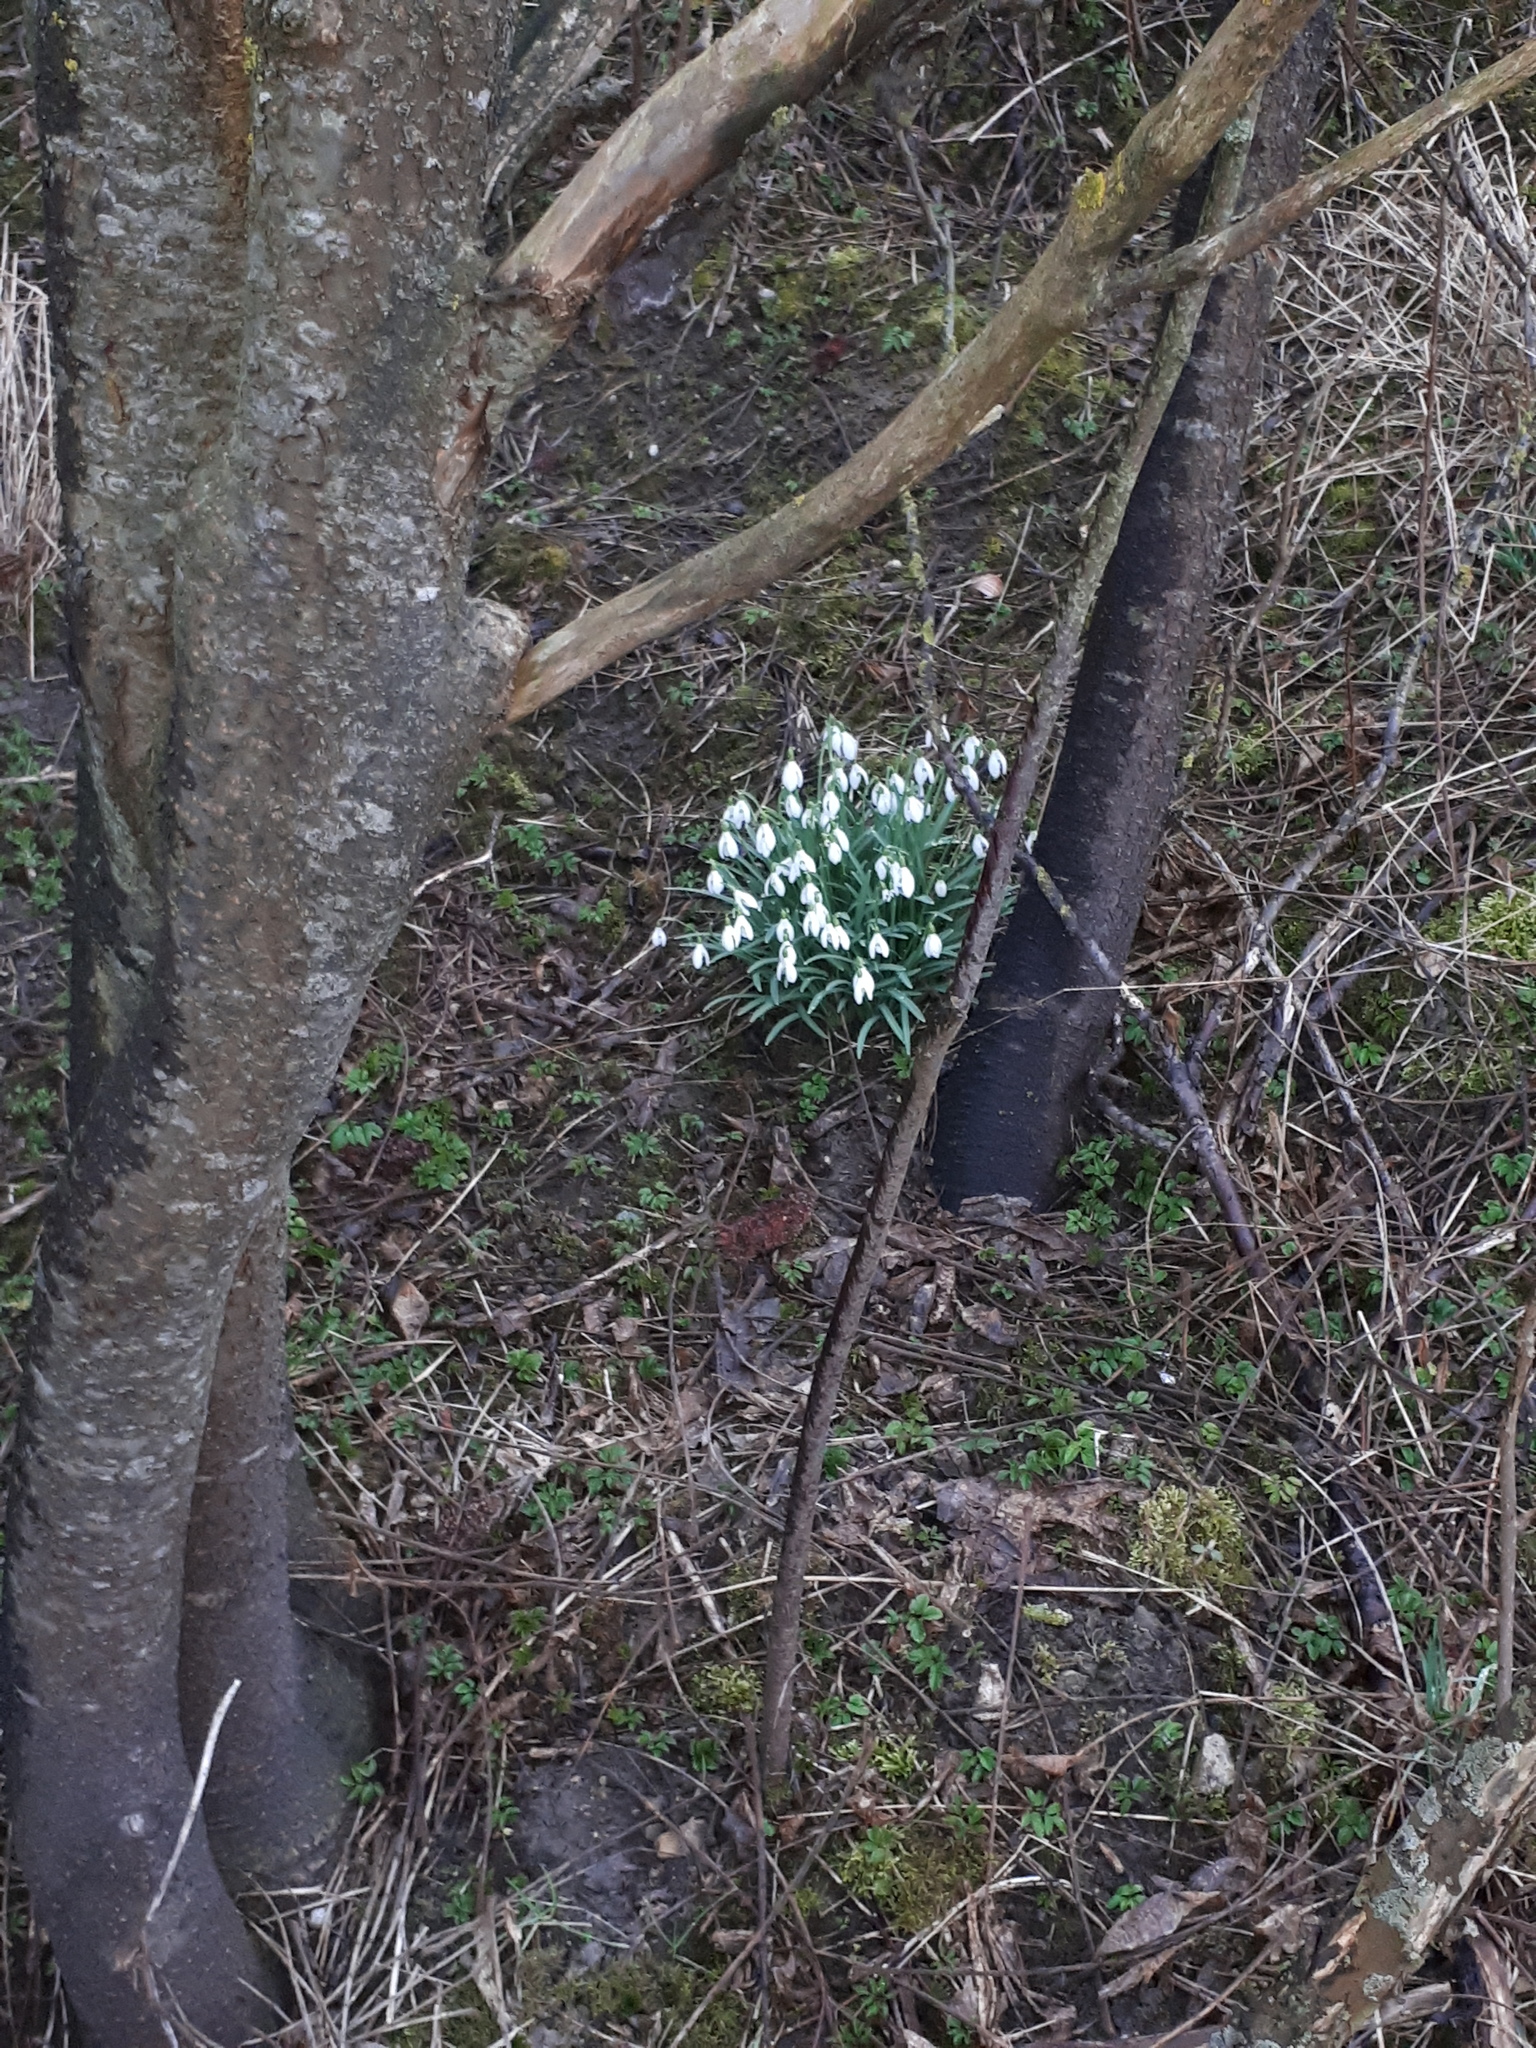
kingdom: Plantae
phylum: Tracheophyta
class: Liliopsida
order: Asparagales
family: Amaryllidaceae
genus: Galanthus
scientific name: Galanthus nivalis
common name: Snowdrop
